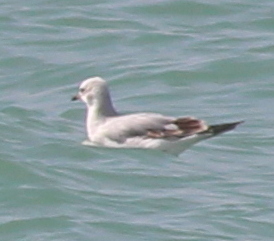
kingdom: Animalia
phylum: Chordata
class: Aves
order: Charadriiformes
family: Laridae
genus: Ichthyaetus
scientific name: Ichthyaetus melanocephalus
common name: Mediterranean gull
